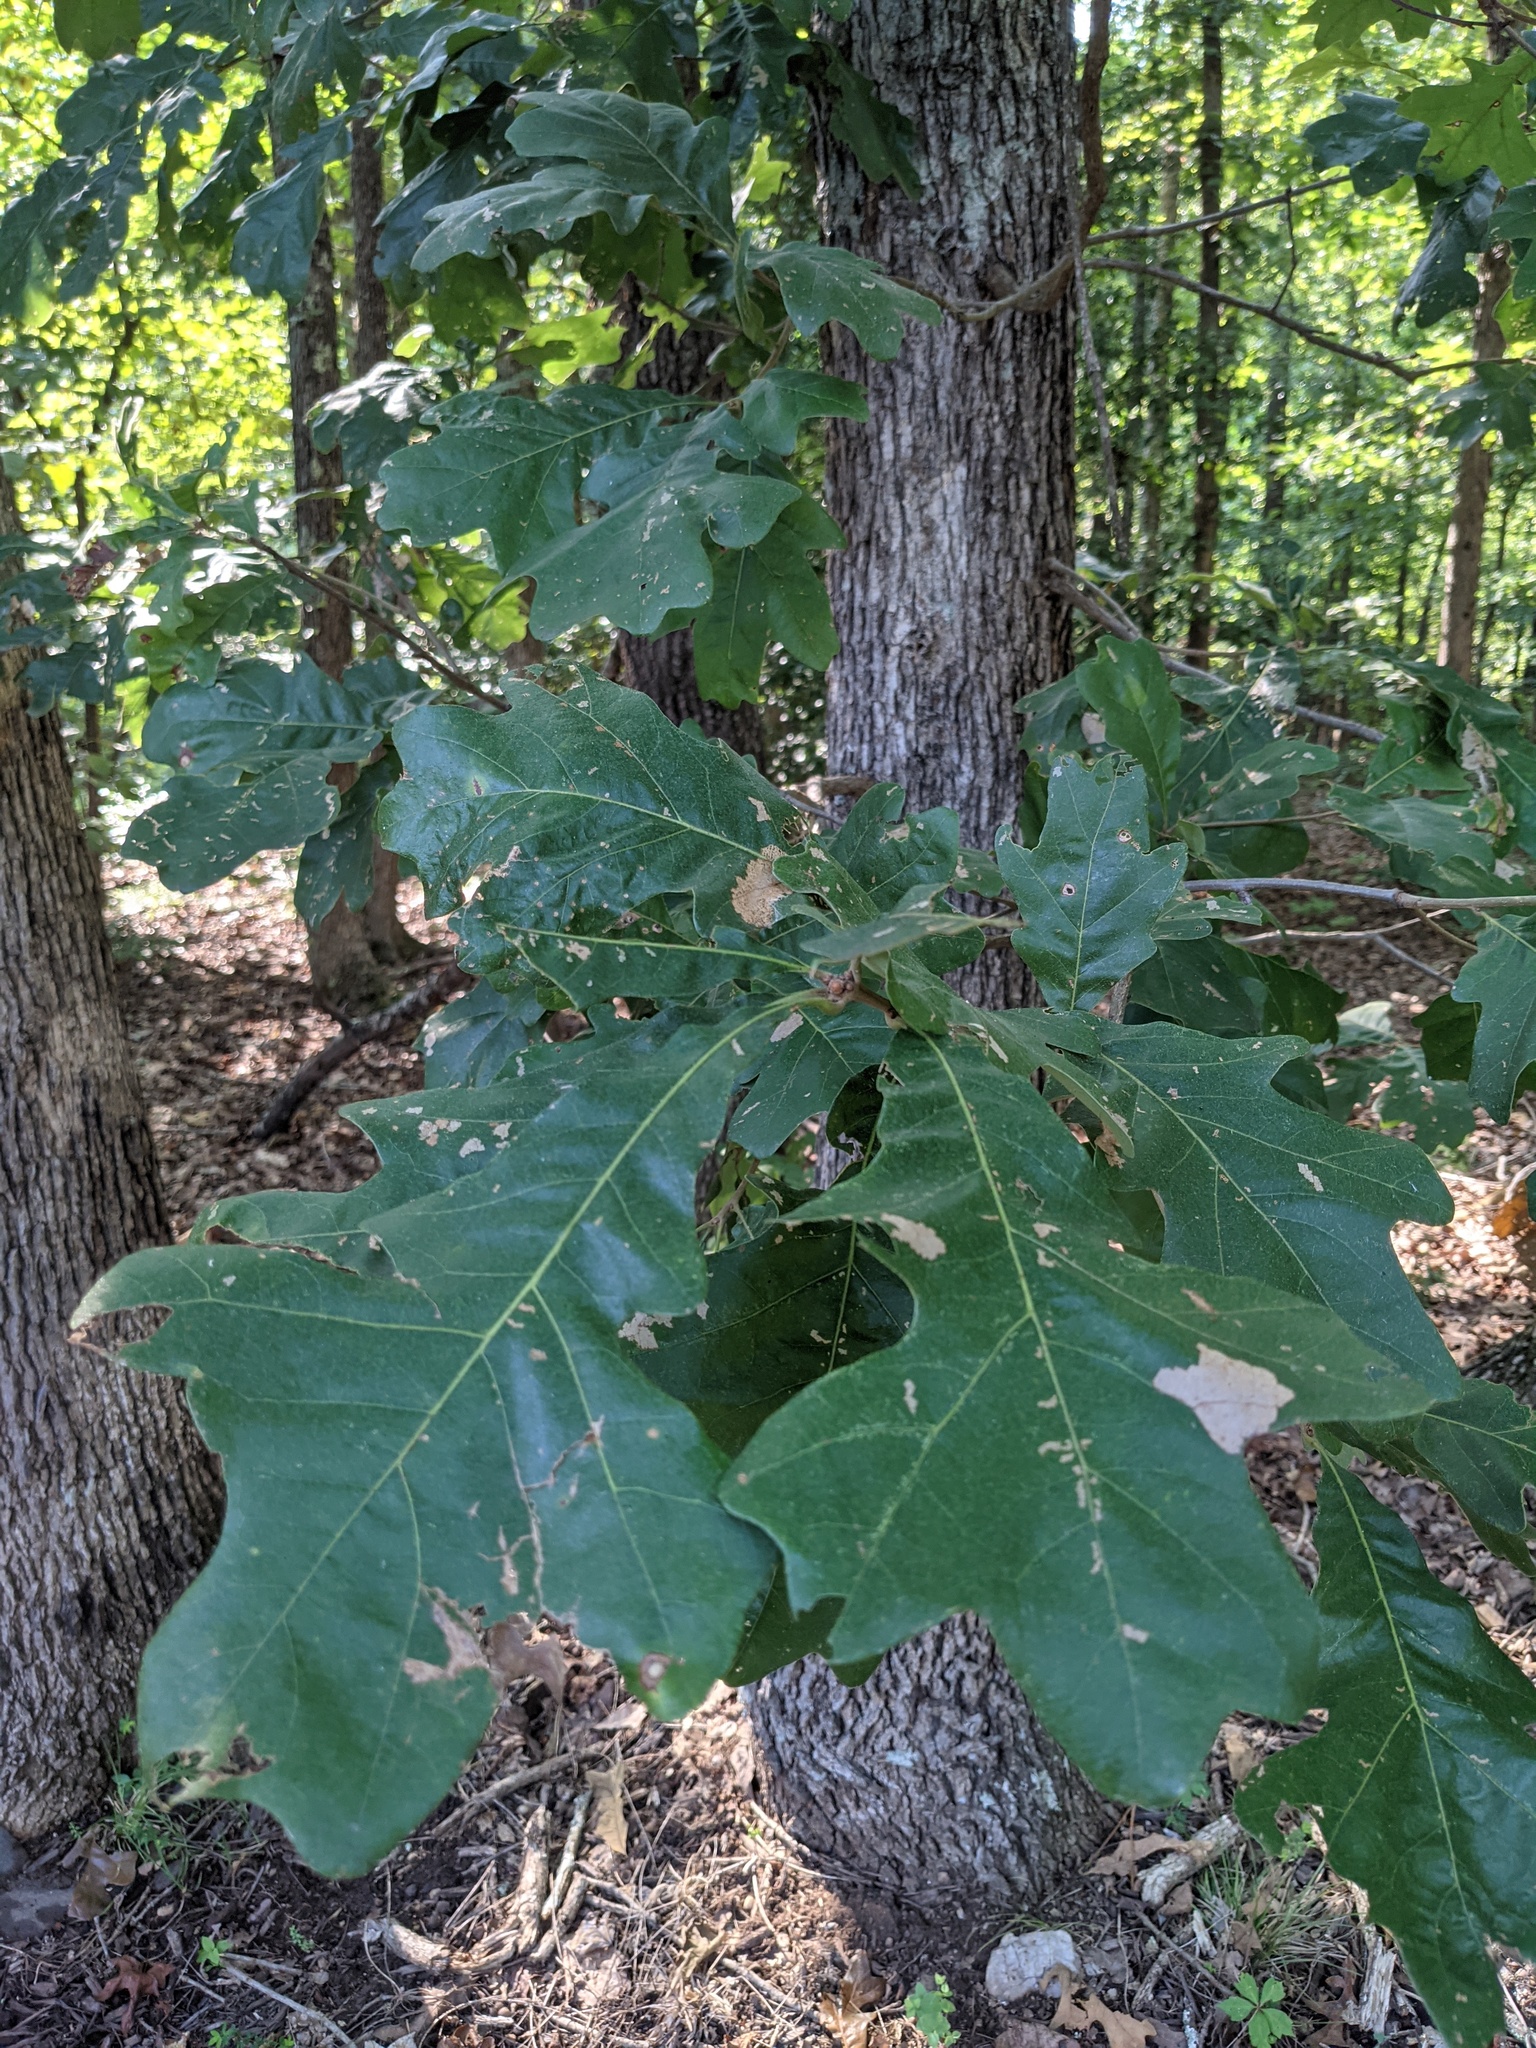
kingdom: Plantae
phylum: Tracheophyta
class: Magnoliopsida
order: Fagales
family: Fagaceae
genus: Quercus
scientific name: Quercus stellata
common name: Post oak
